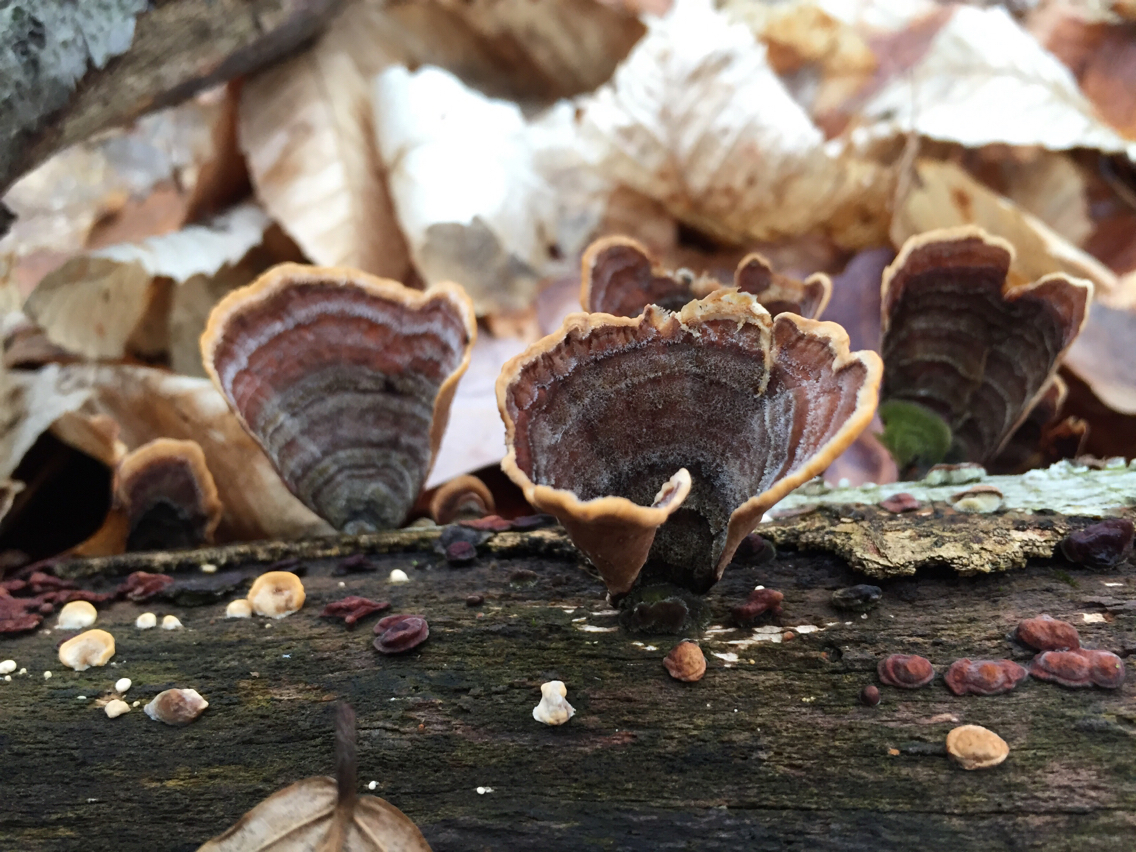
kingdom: Fungi
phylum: Basidiomycota
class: Agaricomycetes
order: Russulales
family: Stereaceae
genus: Stereum
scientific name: Stereum ostrea
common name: False turkeytail
